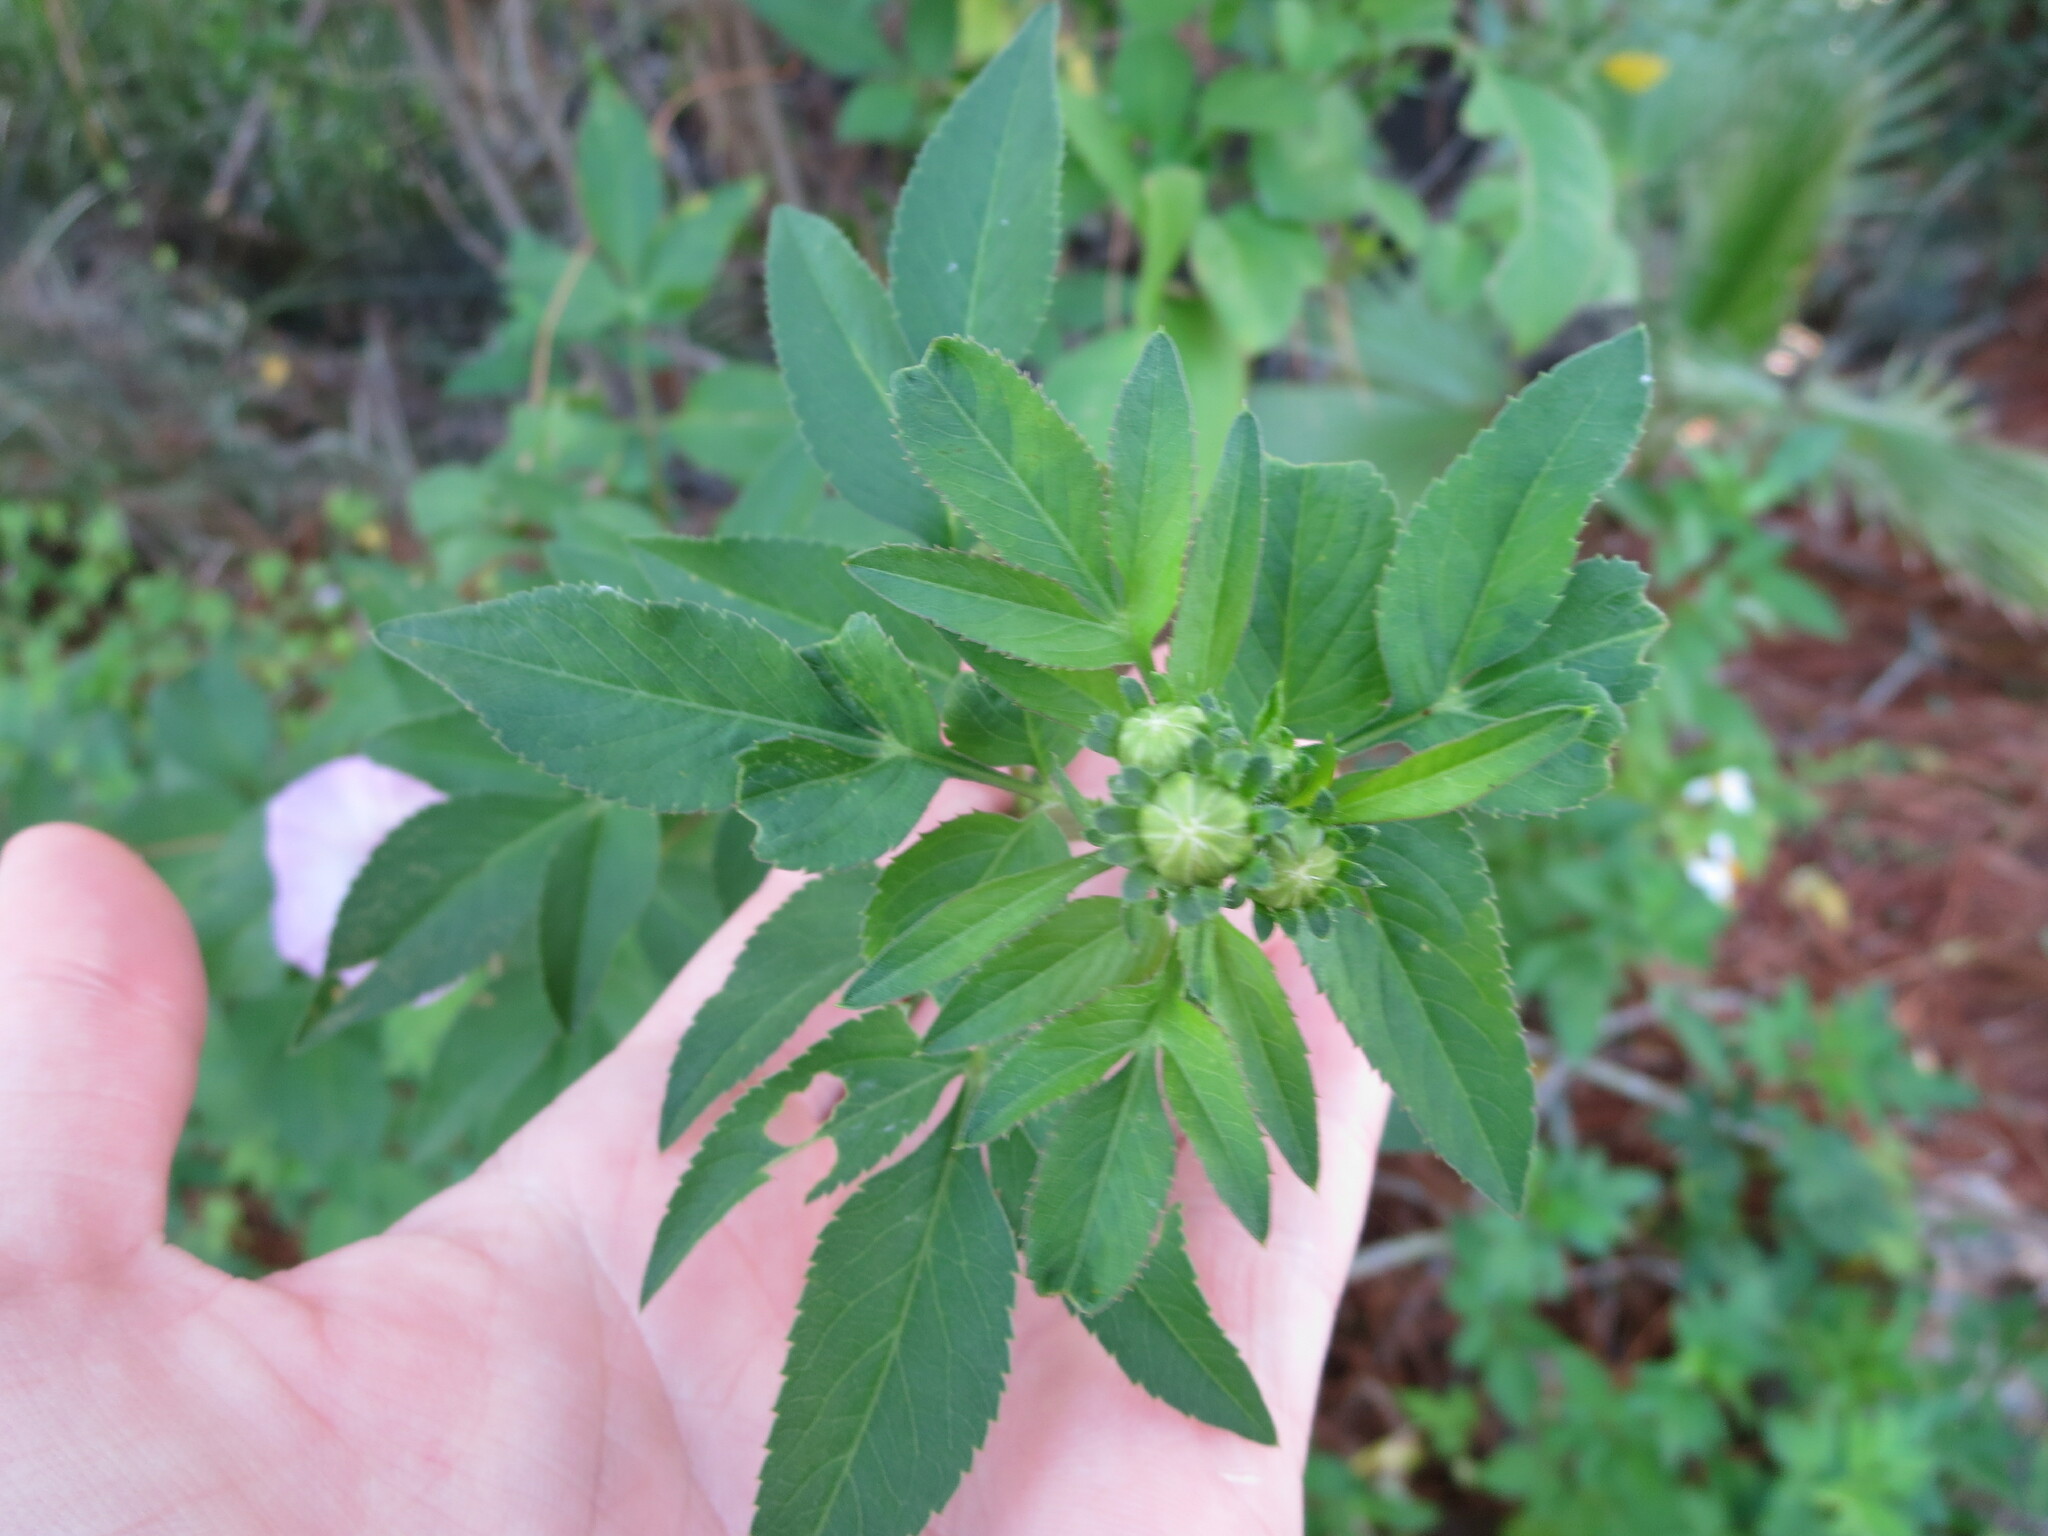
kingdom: Plantae
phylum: Tracheophyta
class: Magnoliopsida
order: Asterales
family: Asteraceae
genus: Bidens
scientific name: Bidens alba
